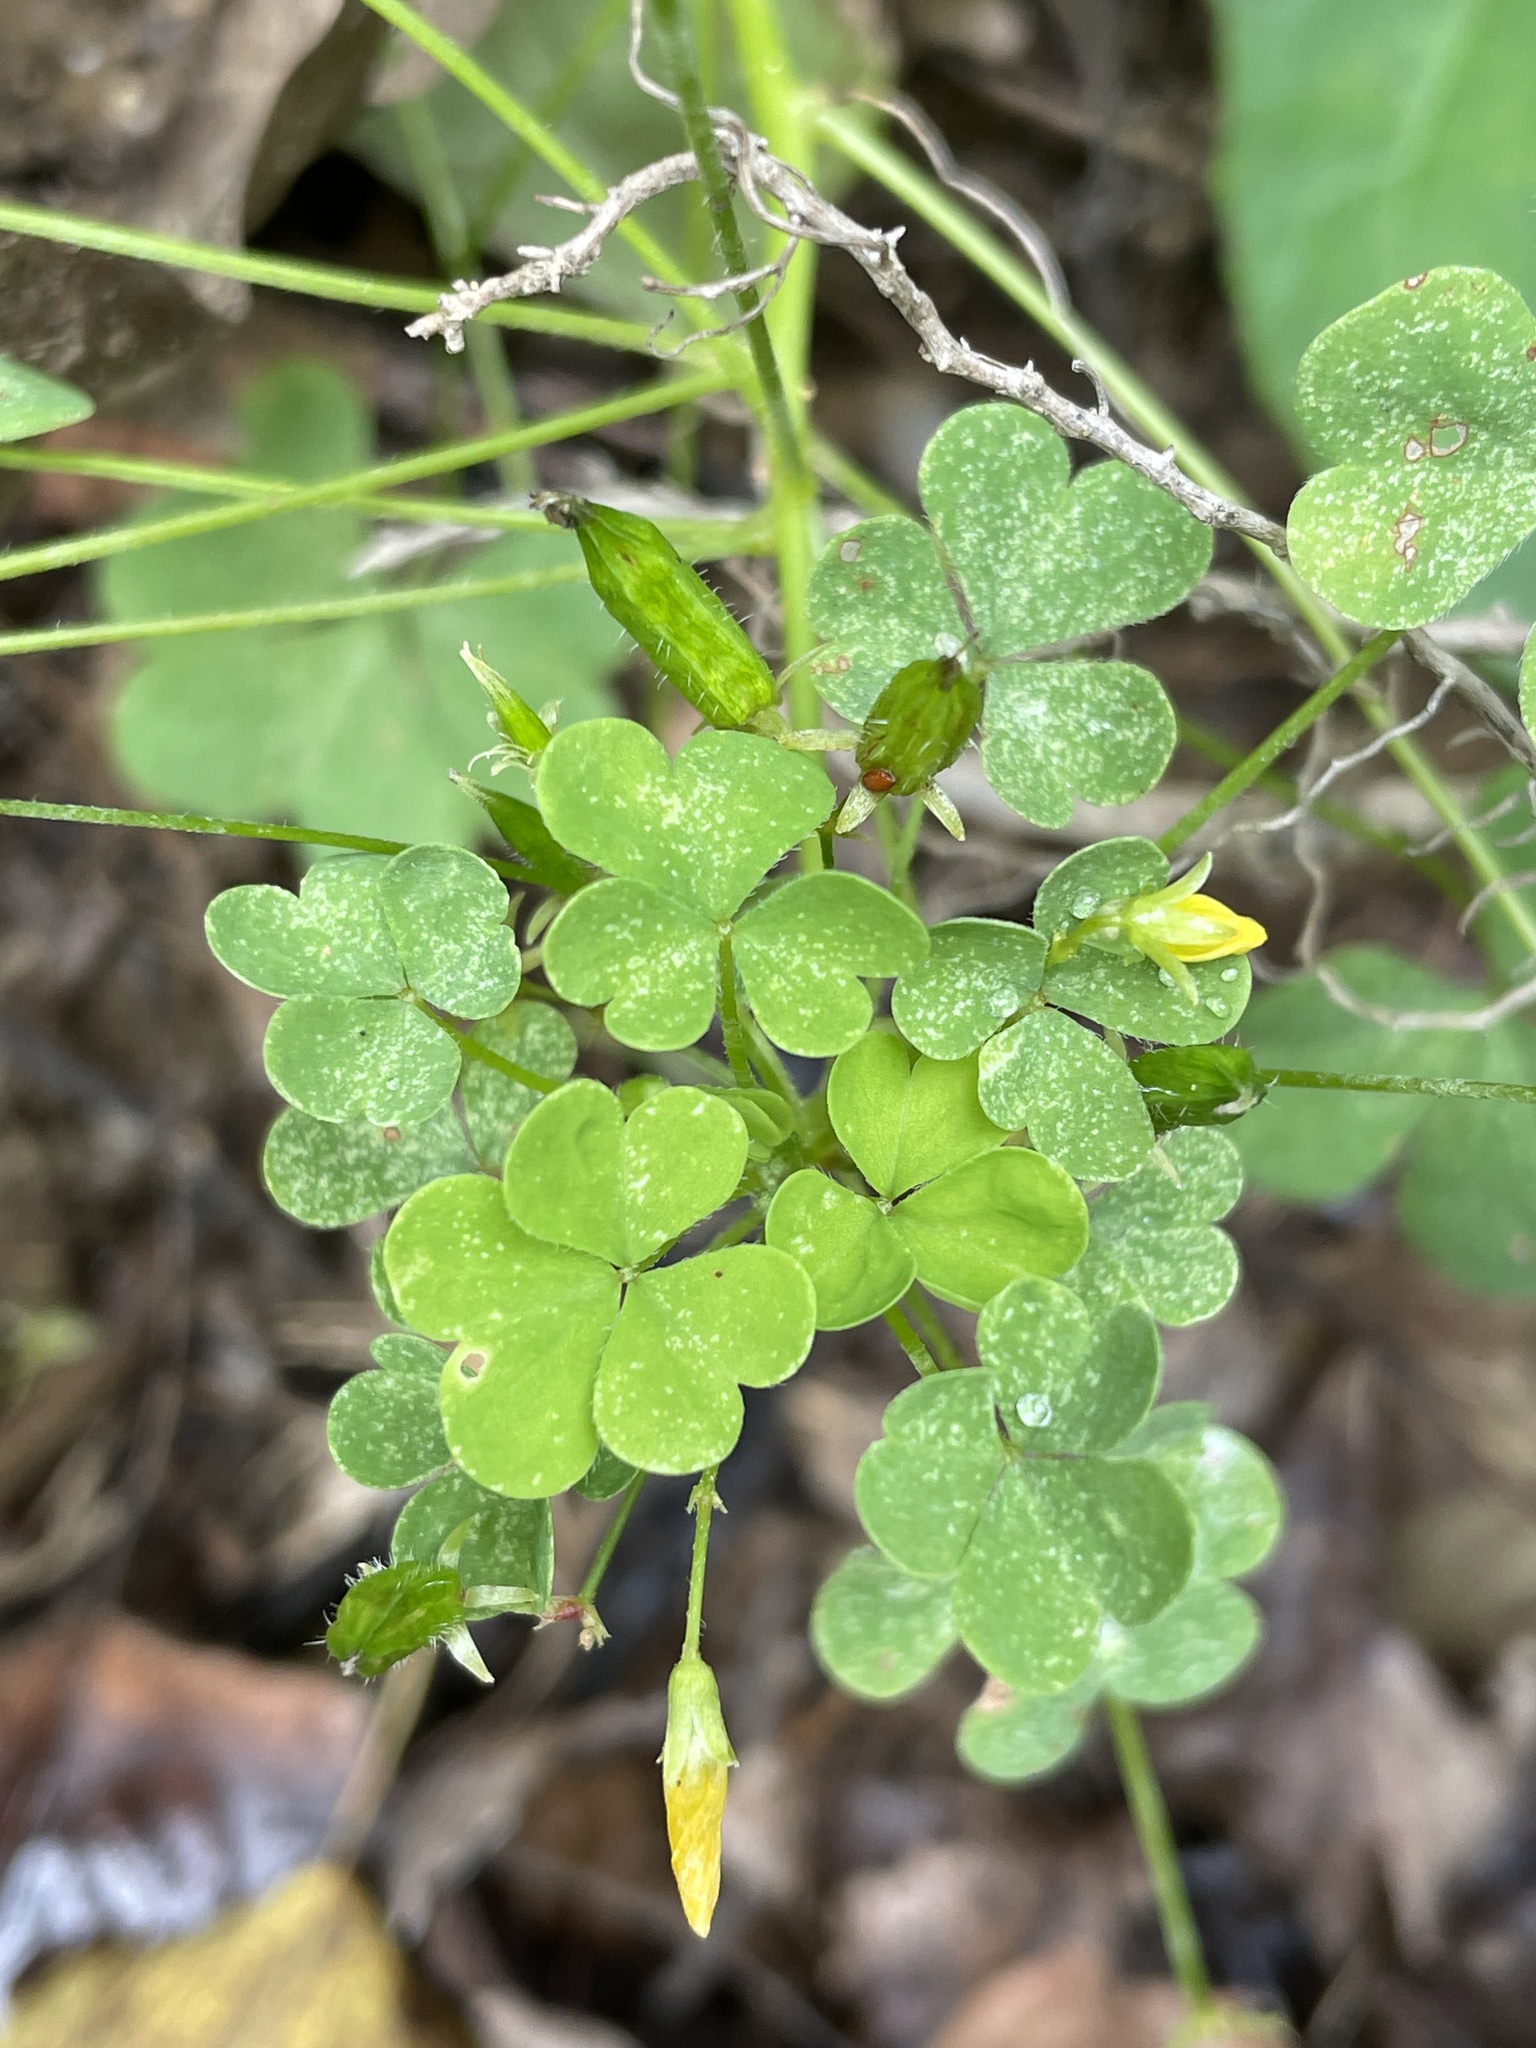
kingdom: Plantae
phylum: Tracheophyta
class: Magnoliopsida
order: Oxalidales
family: Oxalidaceae
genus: Oxalis
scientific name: Oxalis dillenii
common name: Sussex yellow-sorrel
